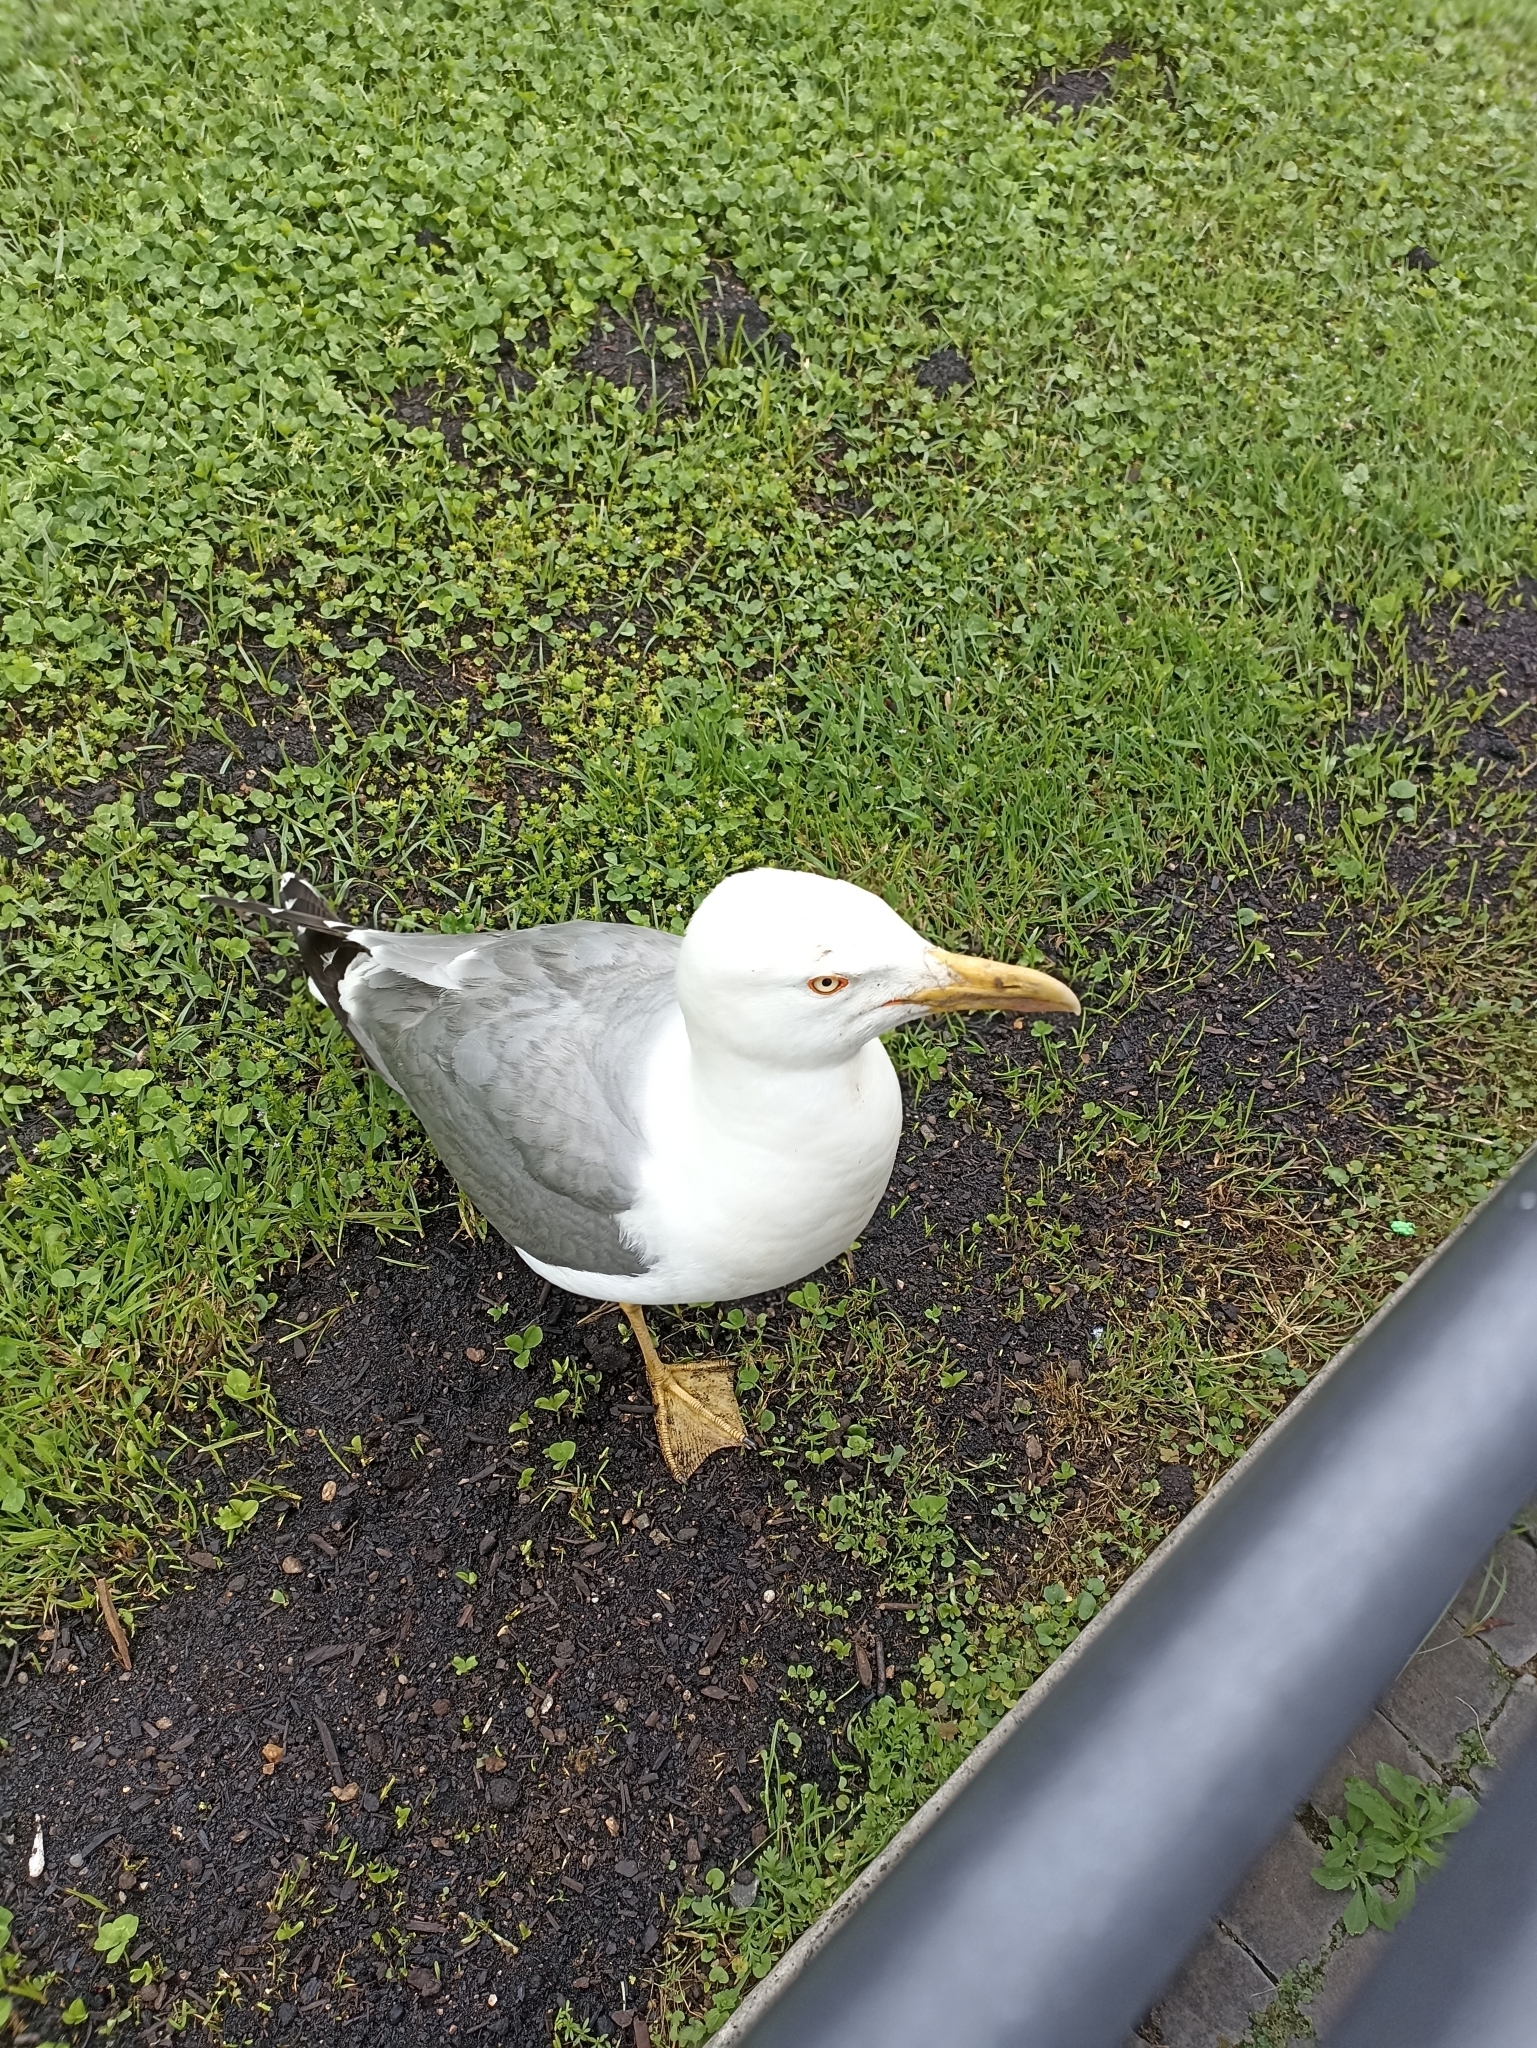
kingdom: Animalia
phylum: Chordata
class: Aves
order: Charadriiformes
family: Laridae
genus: Larus
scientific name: Larus michahellis
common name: Yellow-legged gull
